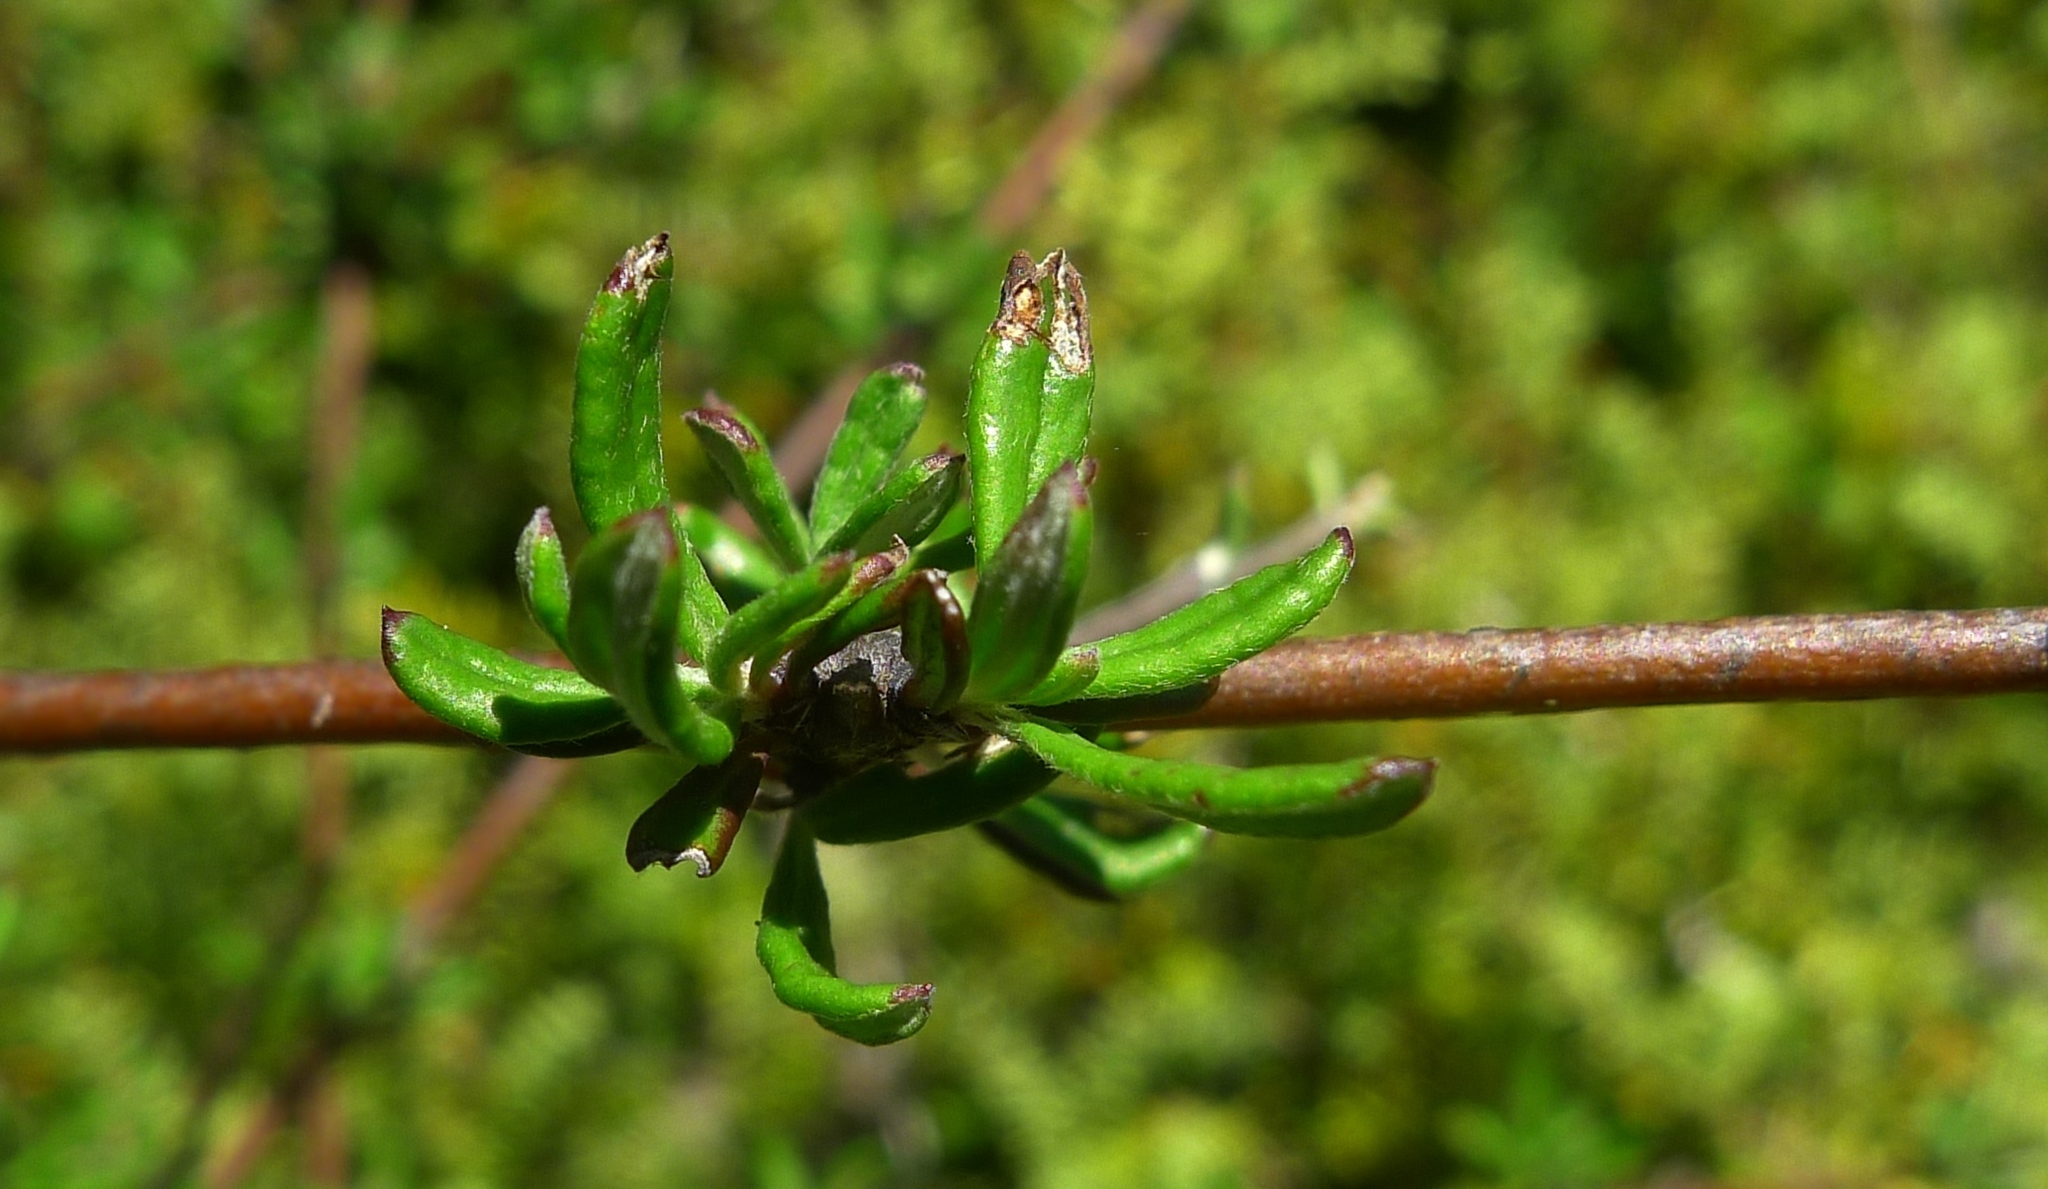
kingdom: Plantae
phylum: Tracheophyta
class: Magnoliopsida
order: Asterales
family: Asteraceae
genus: Olearia
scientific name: Olearia bullata
